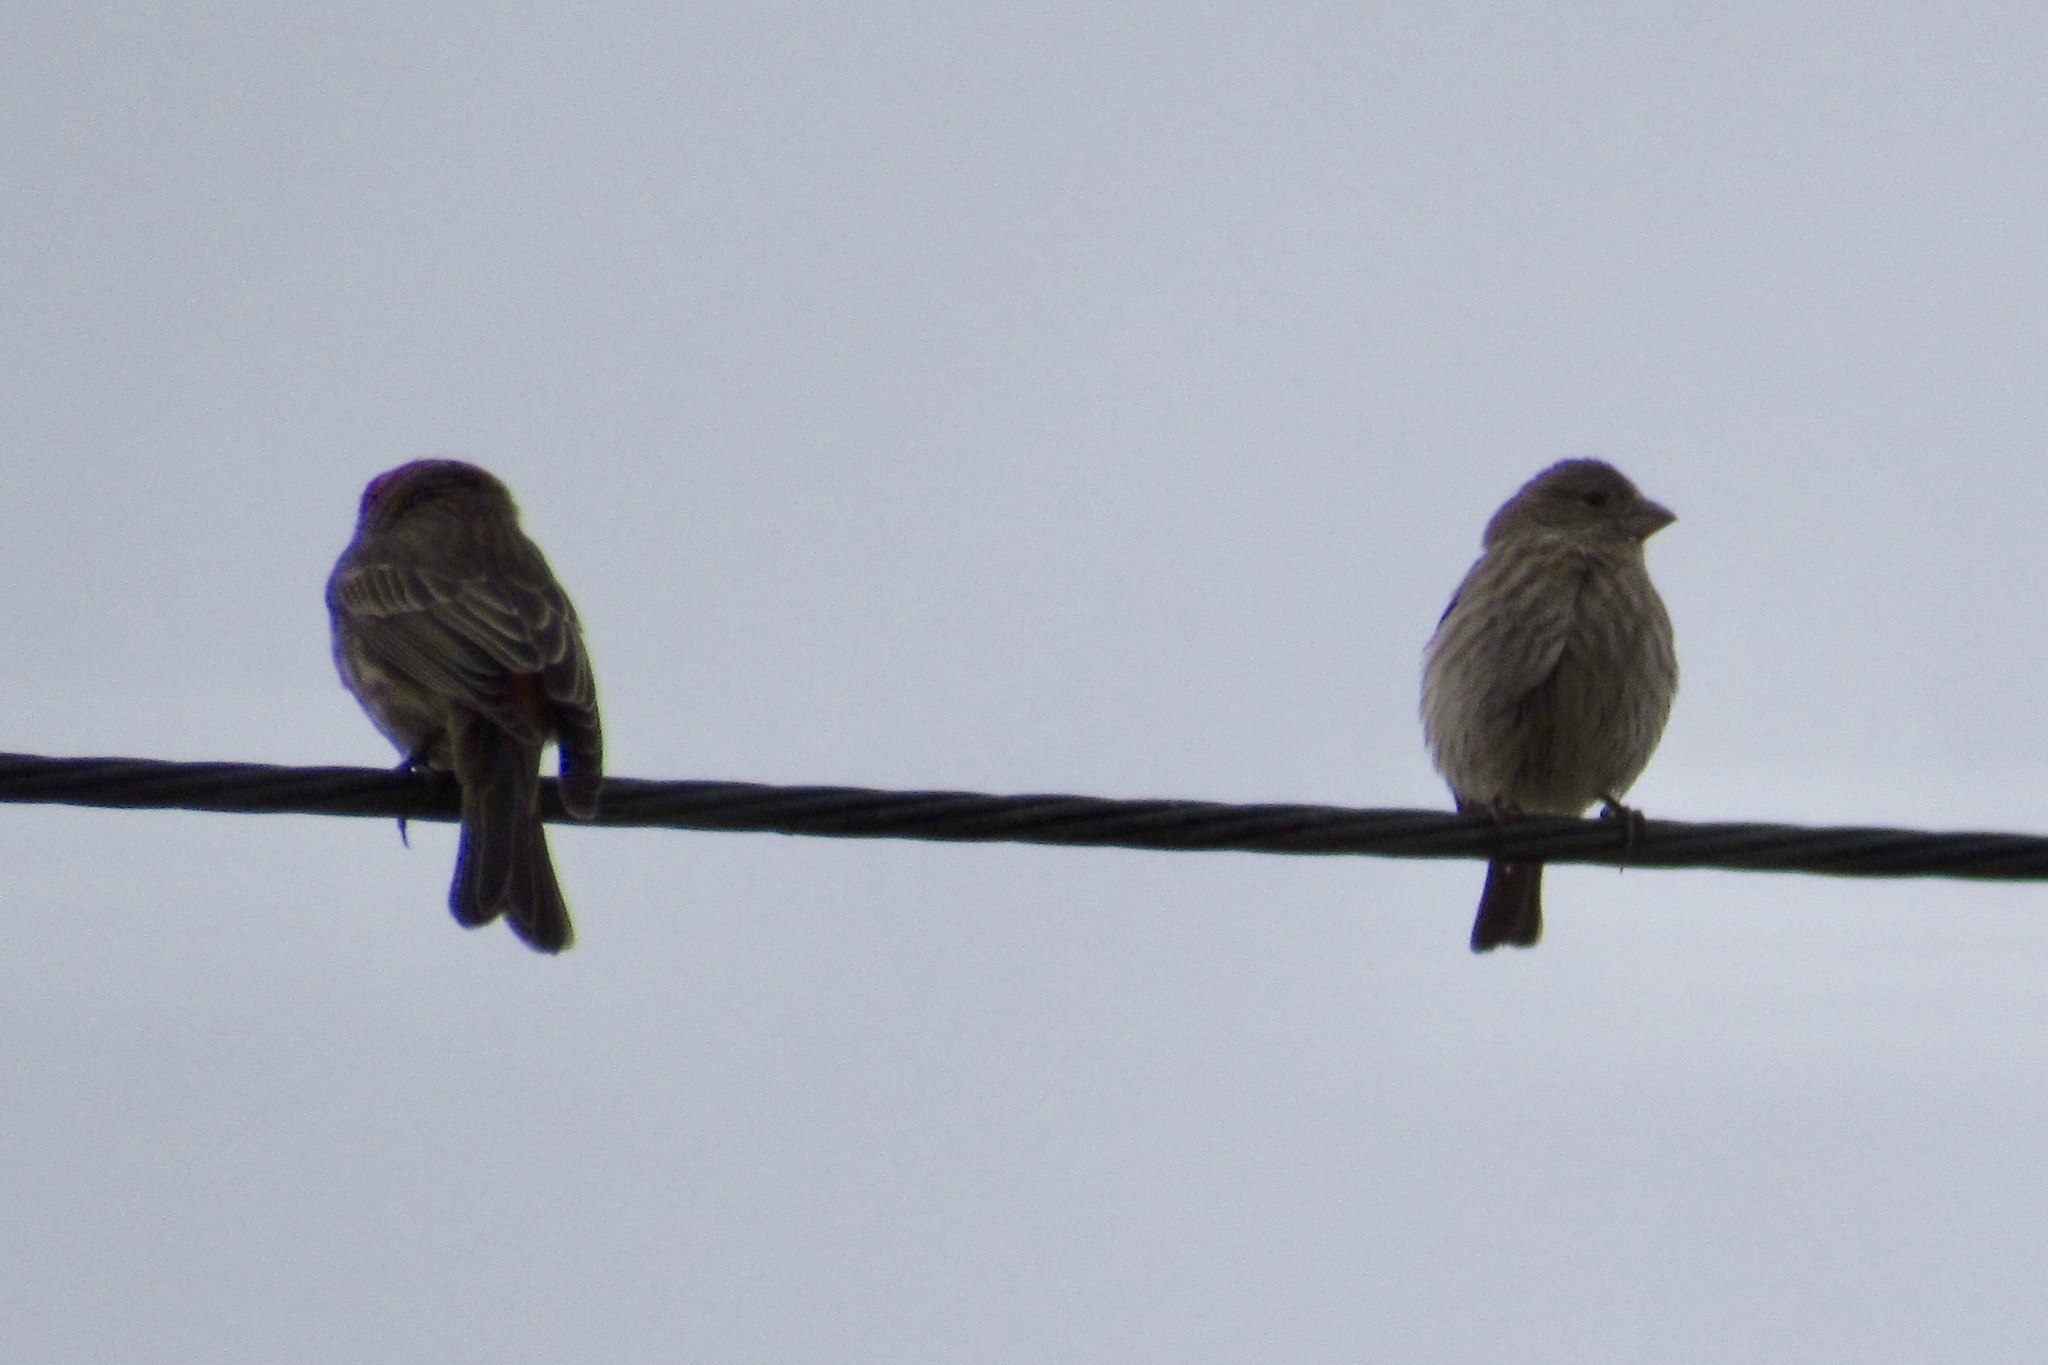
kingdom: Animalia
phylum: Chordata
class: Aves
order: Passeriformes
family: Fringillidae
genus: Haemorhous
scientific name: Haemorhous mexicanus
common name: House finch
